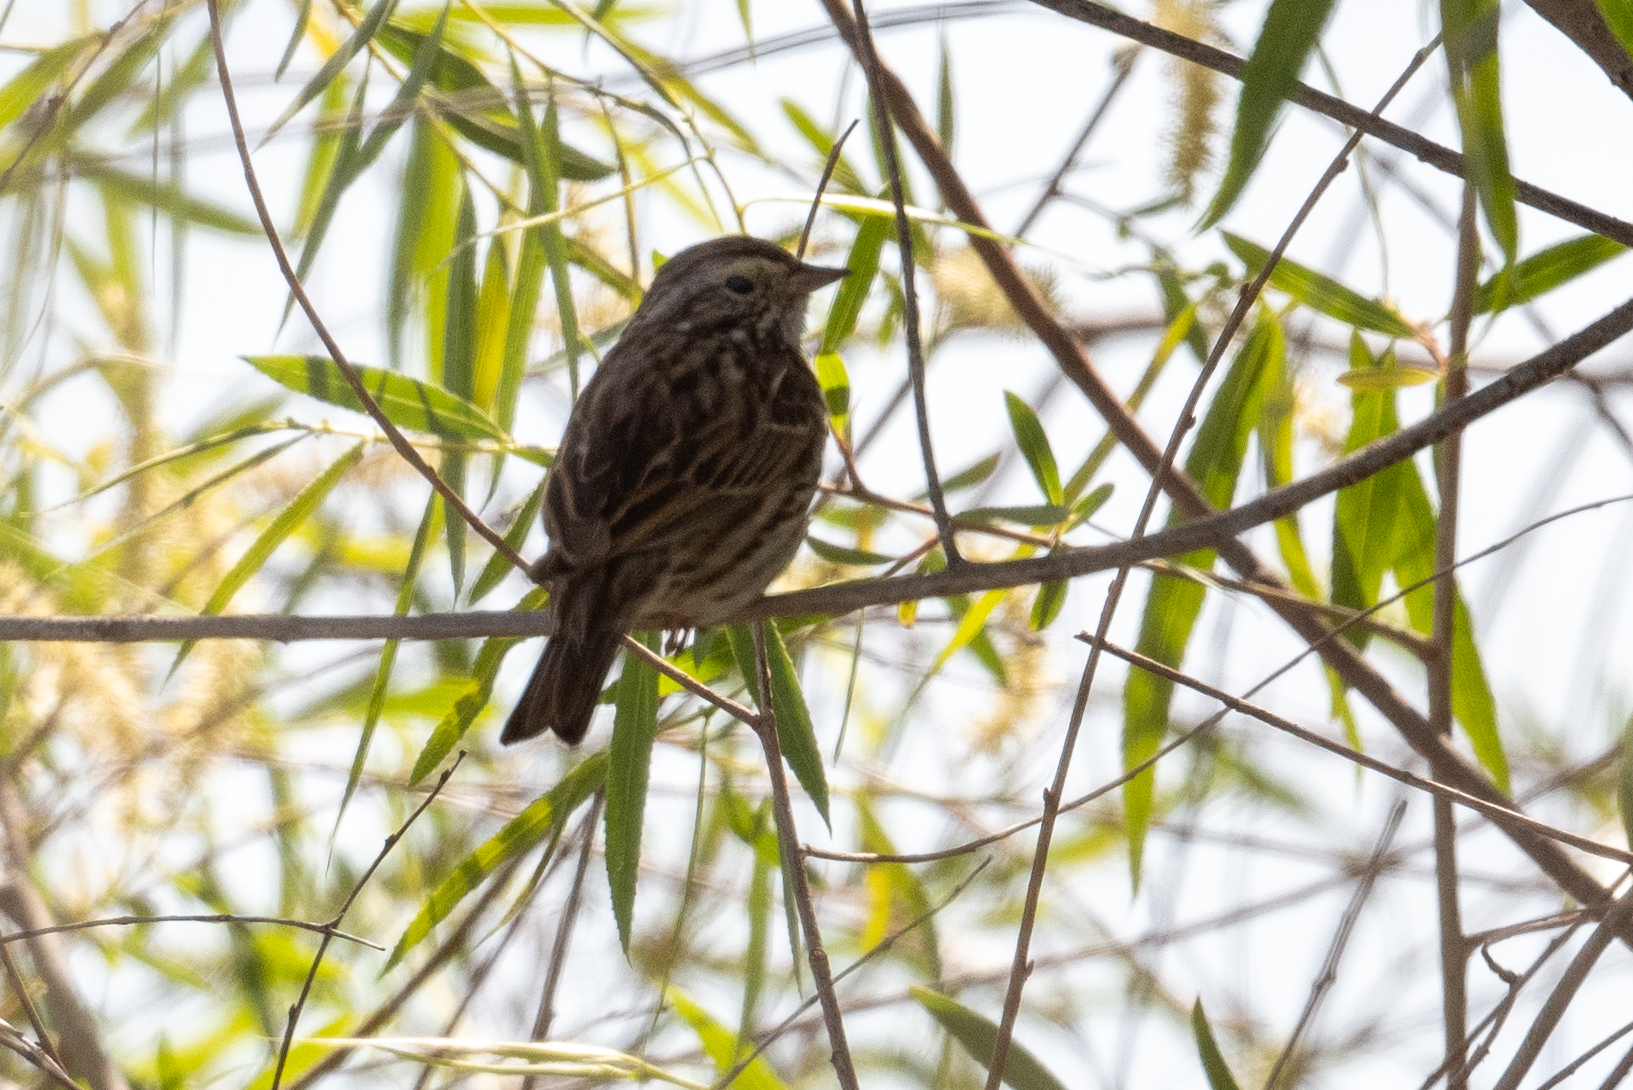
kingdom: Animalia
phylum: Chordata
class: Aves
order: Passeriformes
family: Passerellidae
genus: Passerculus
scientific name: Passerculus sandwichensis
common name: Savannah sparrow
